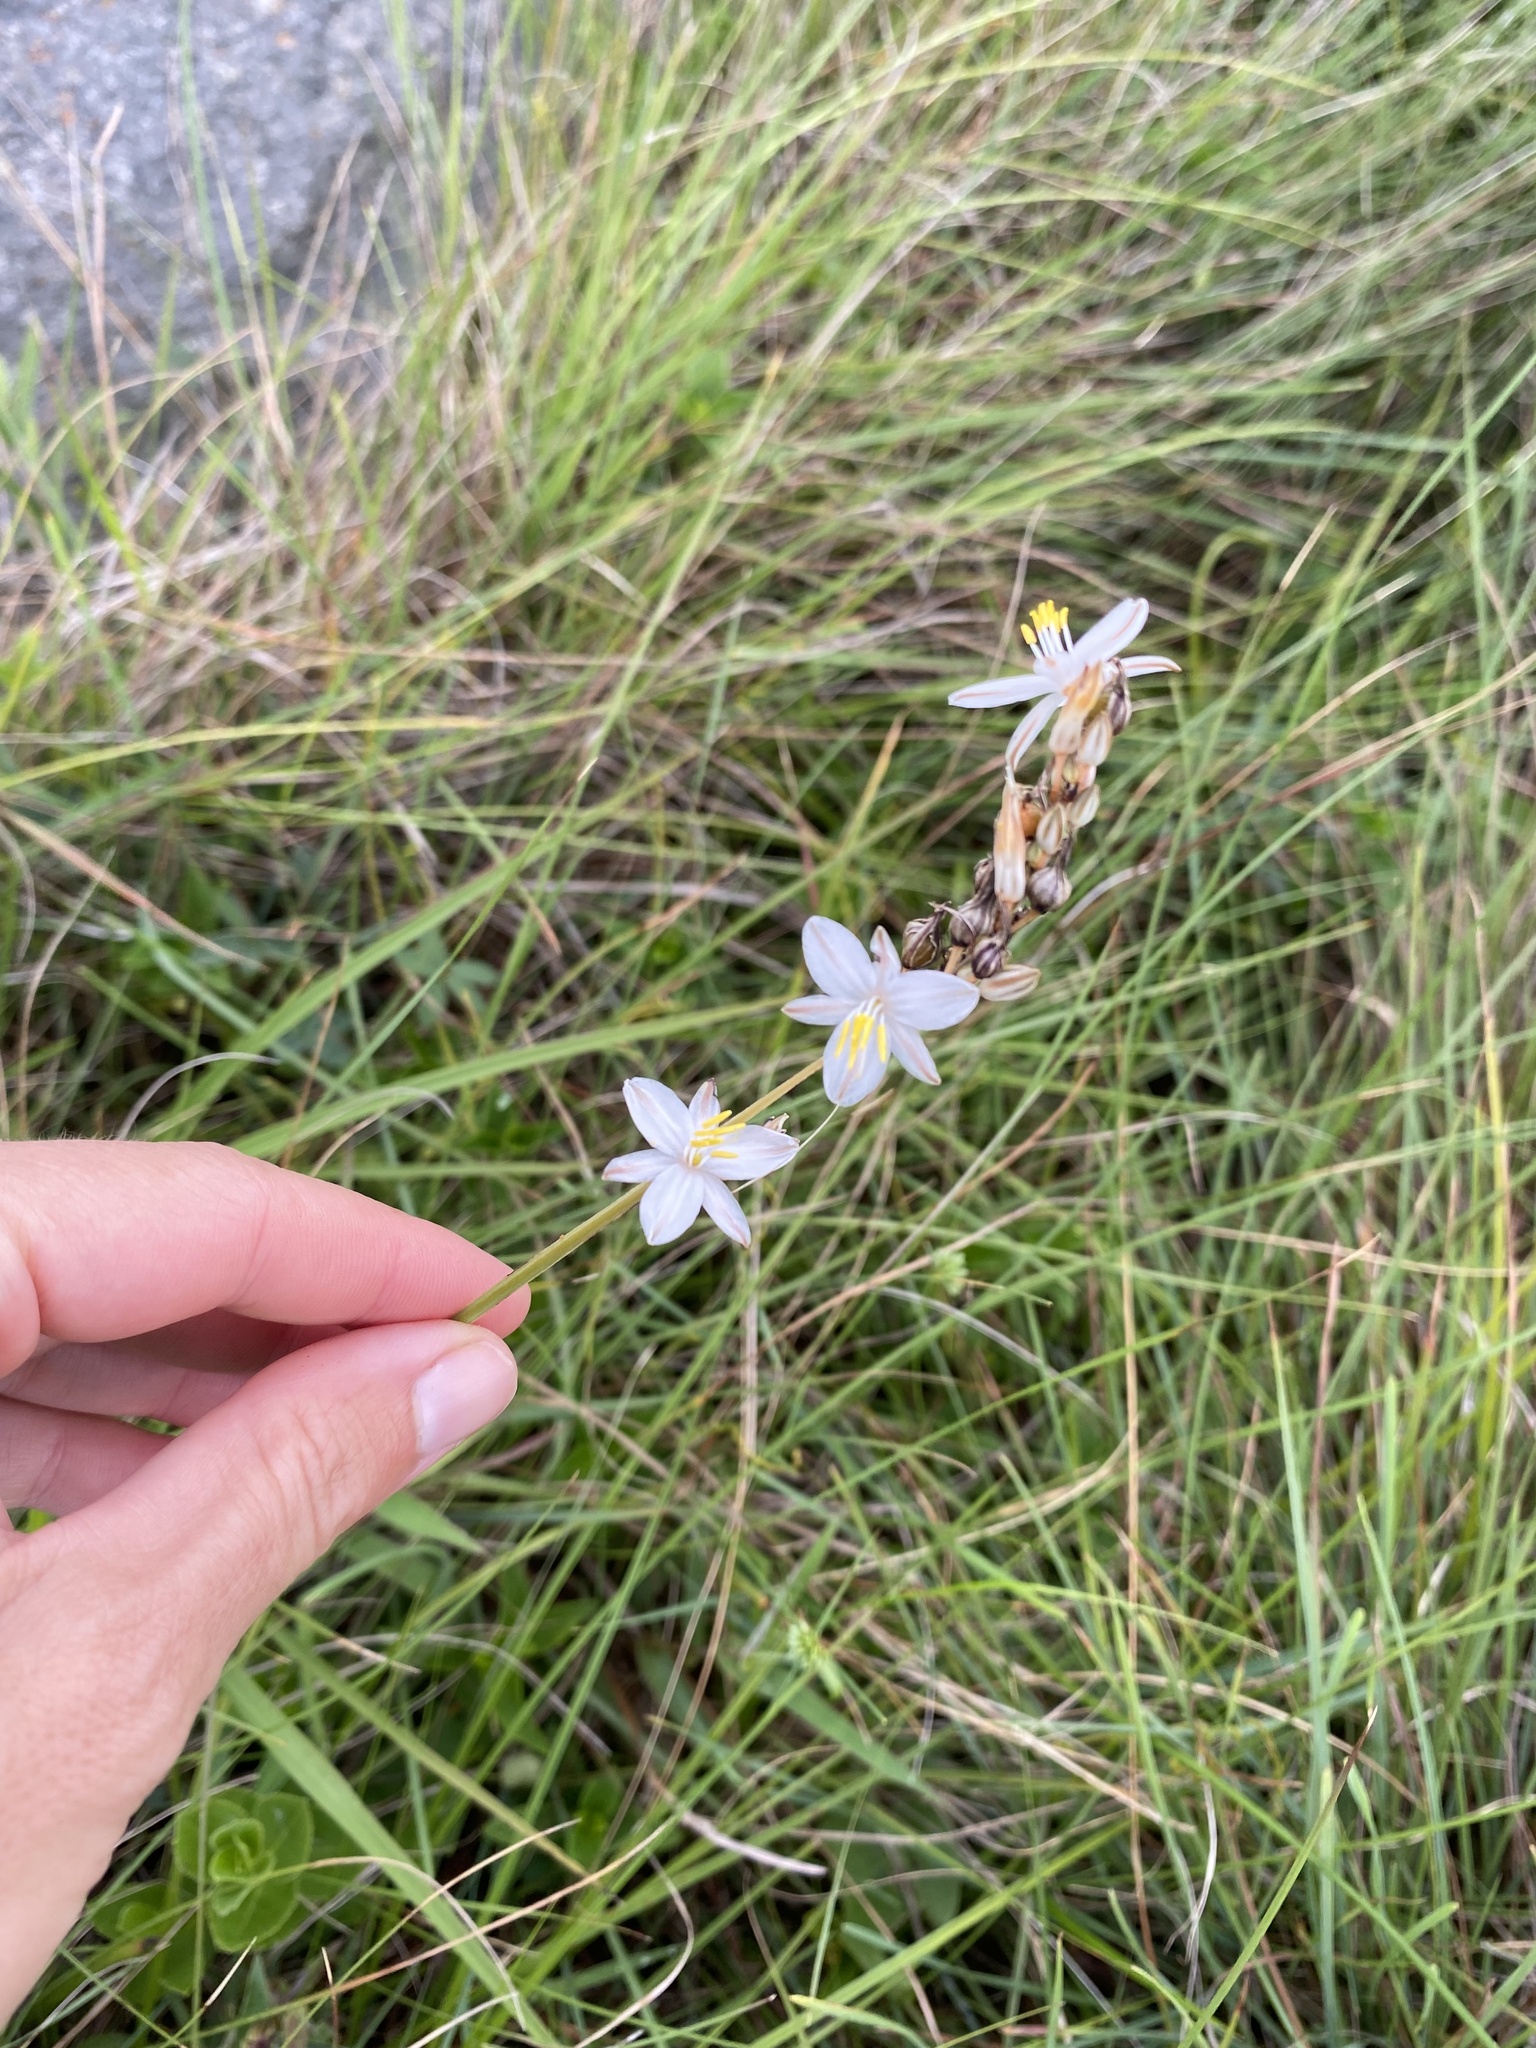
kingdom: Plantae
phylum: Tracheophyta
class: Liliopsida
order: Asparagales
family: Asparagaceae
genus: Chlorophytum
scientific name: Chlorophytum cooperi
